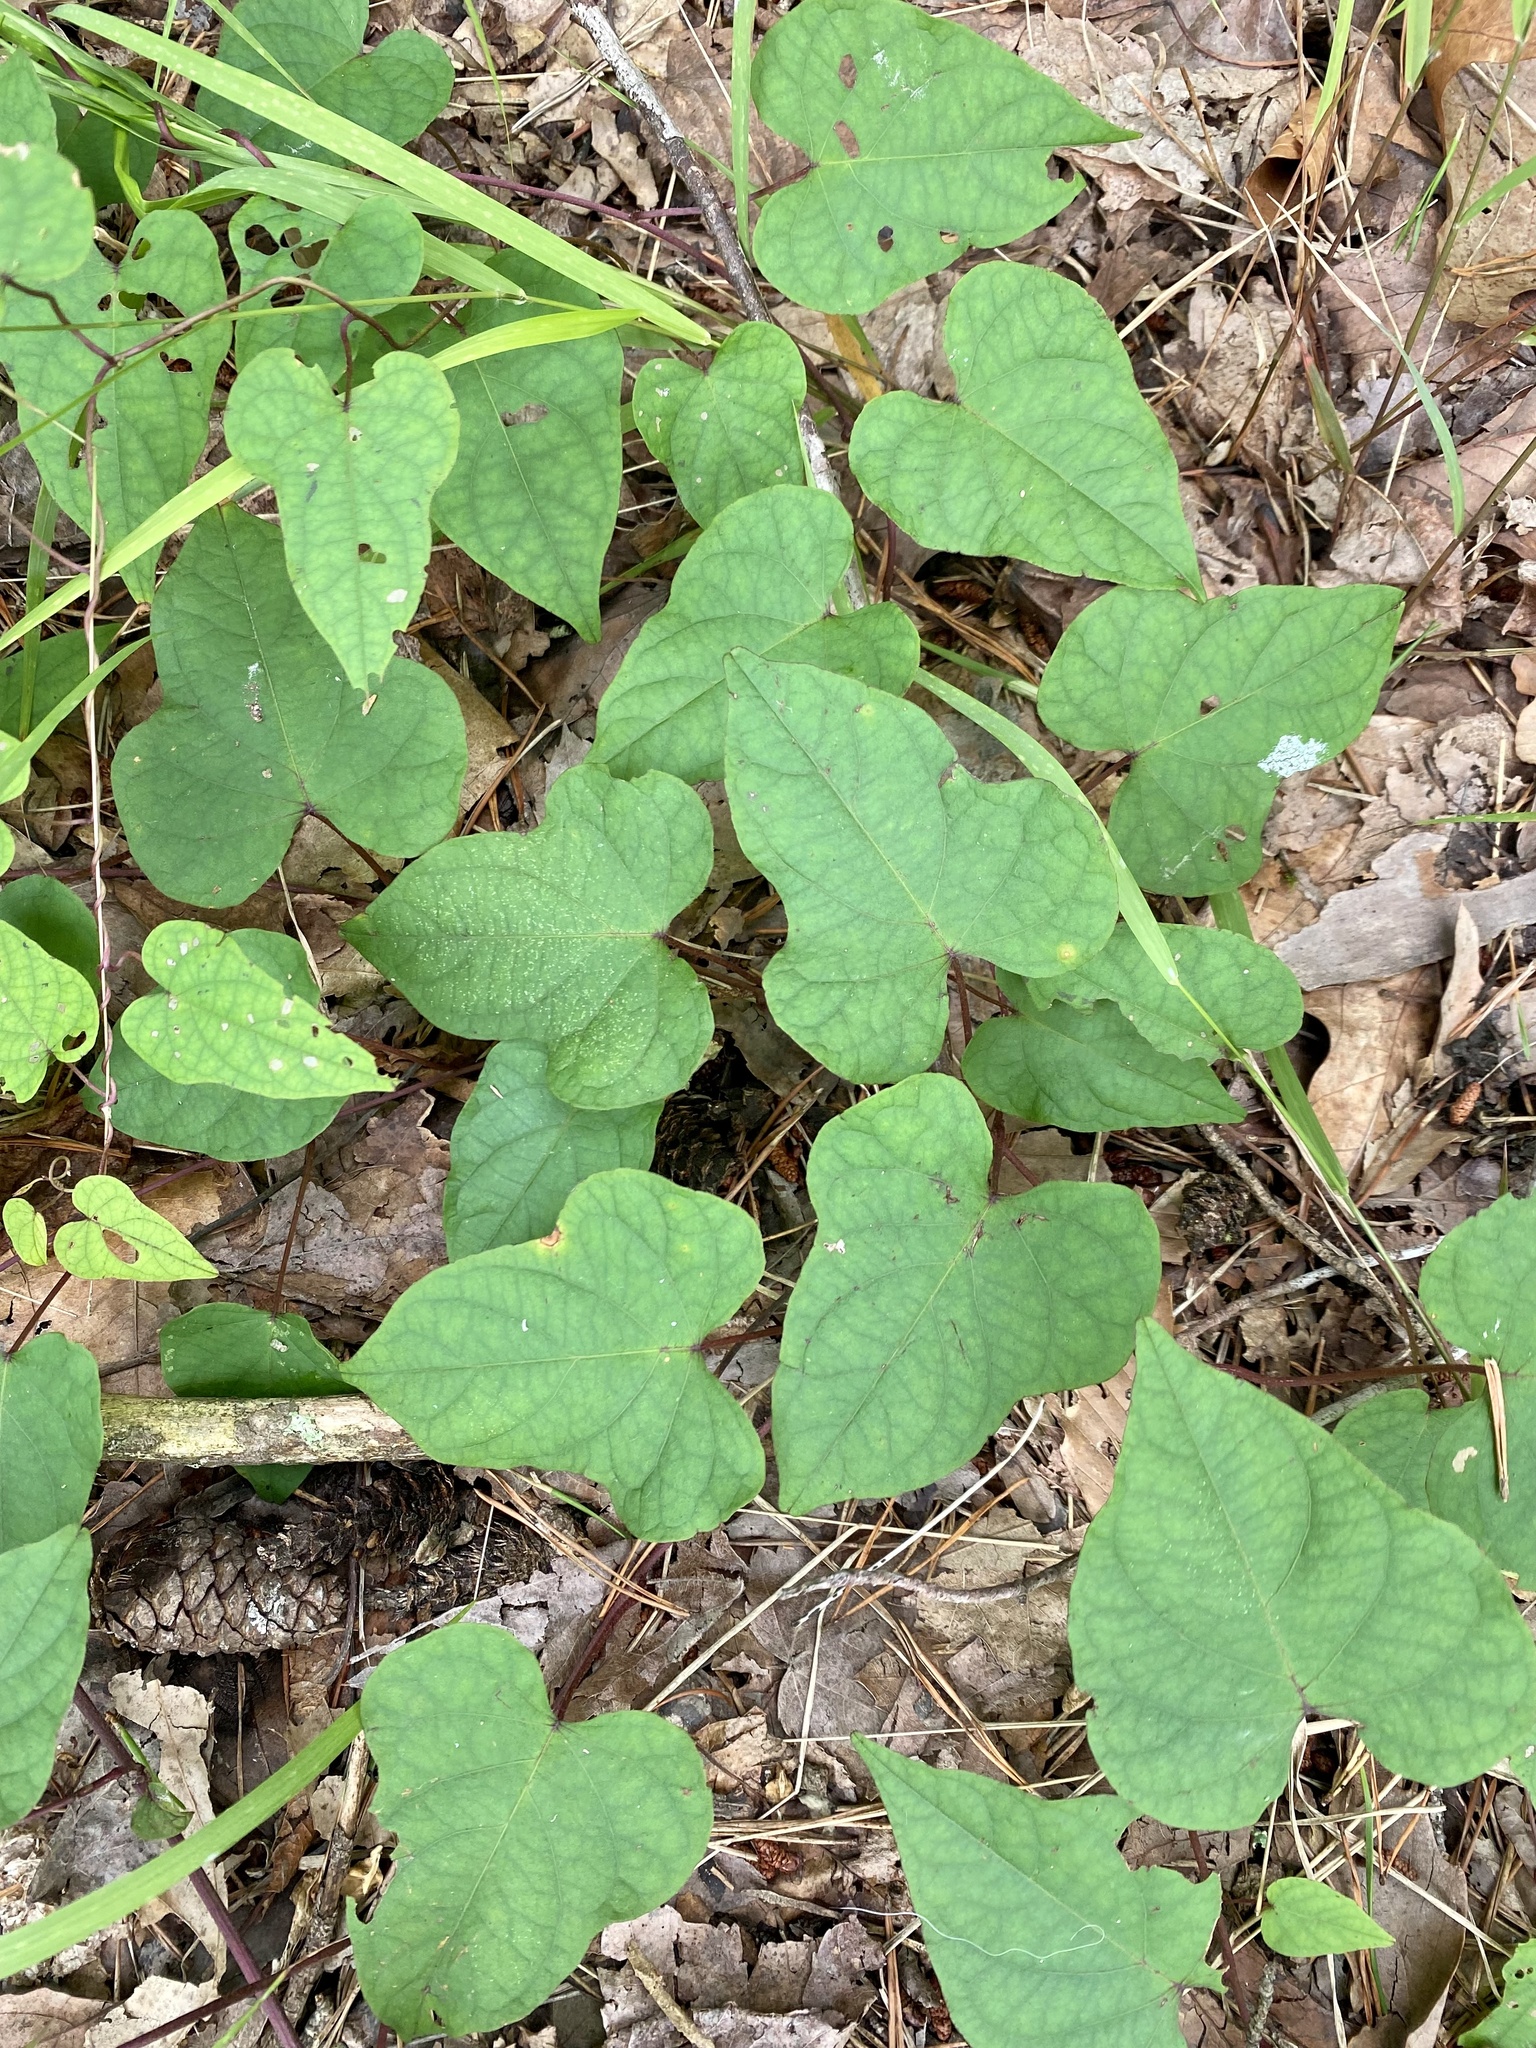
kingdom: Plantae
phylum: Tracheophyta
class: Magnoliopsida
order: Solanales
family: Convolvulaceae
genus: Ipomoea
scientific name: Ipomoea pandurata
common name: Man-of-the-earth
